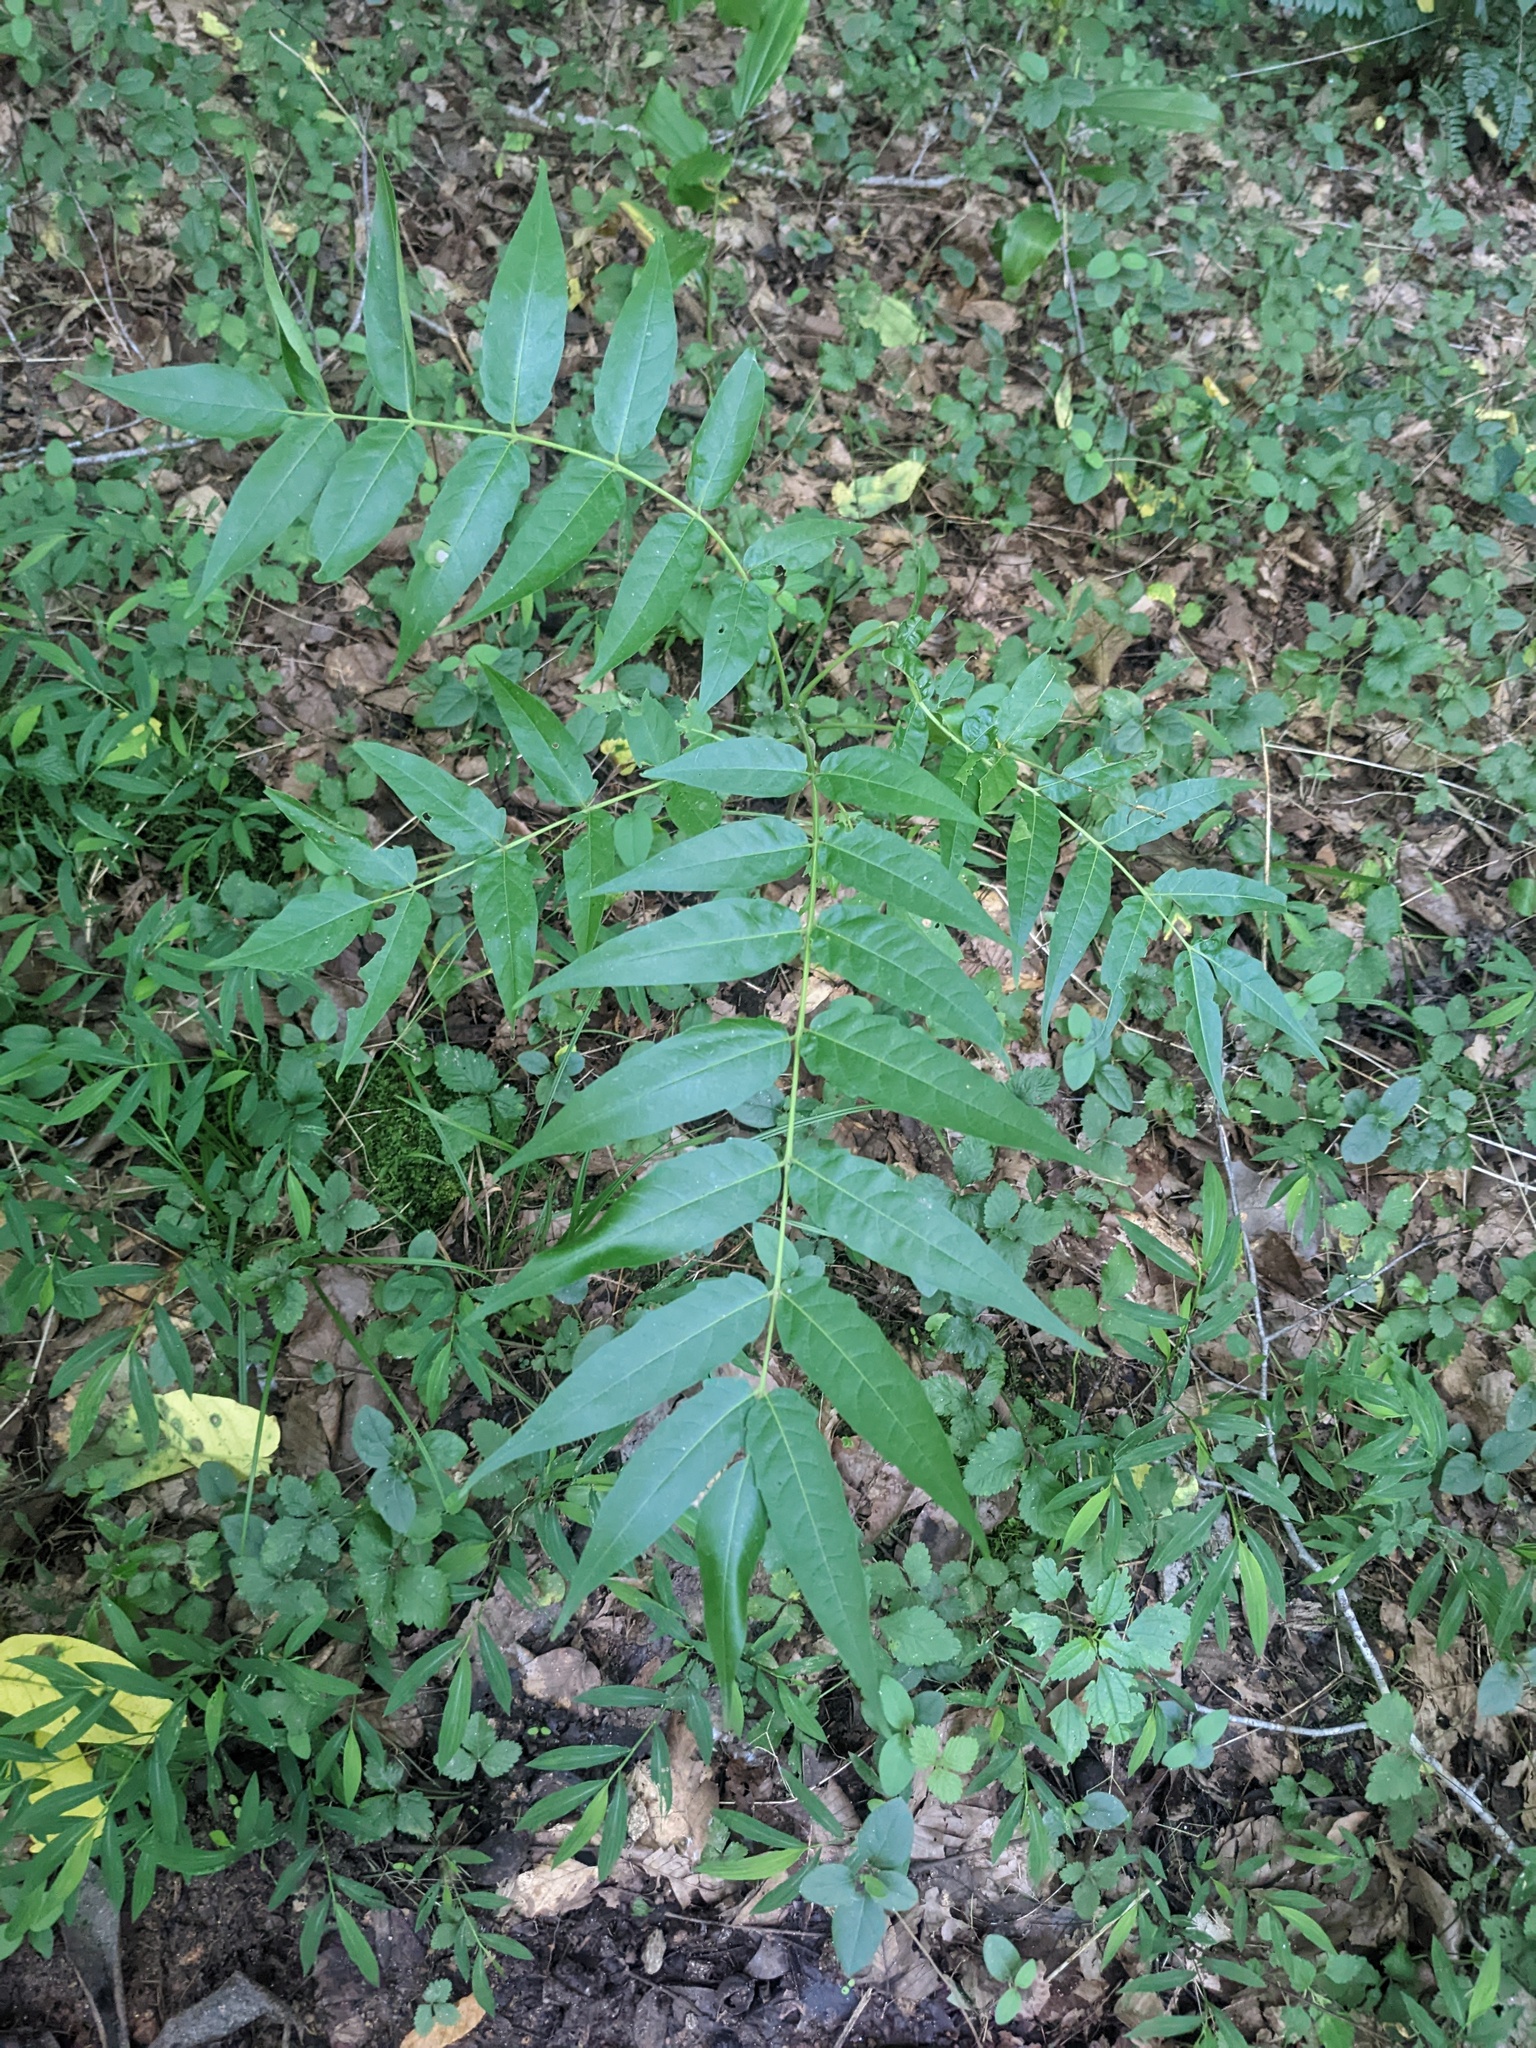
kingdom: Plantae
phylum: Tracheophyta
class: Magnoliopsida
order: Sapindales
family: Simaroubaceae
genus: Ailanthus
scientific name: Ailanthus altissima
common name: Tree-of-heaven
